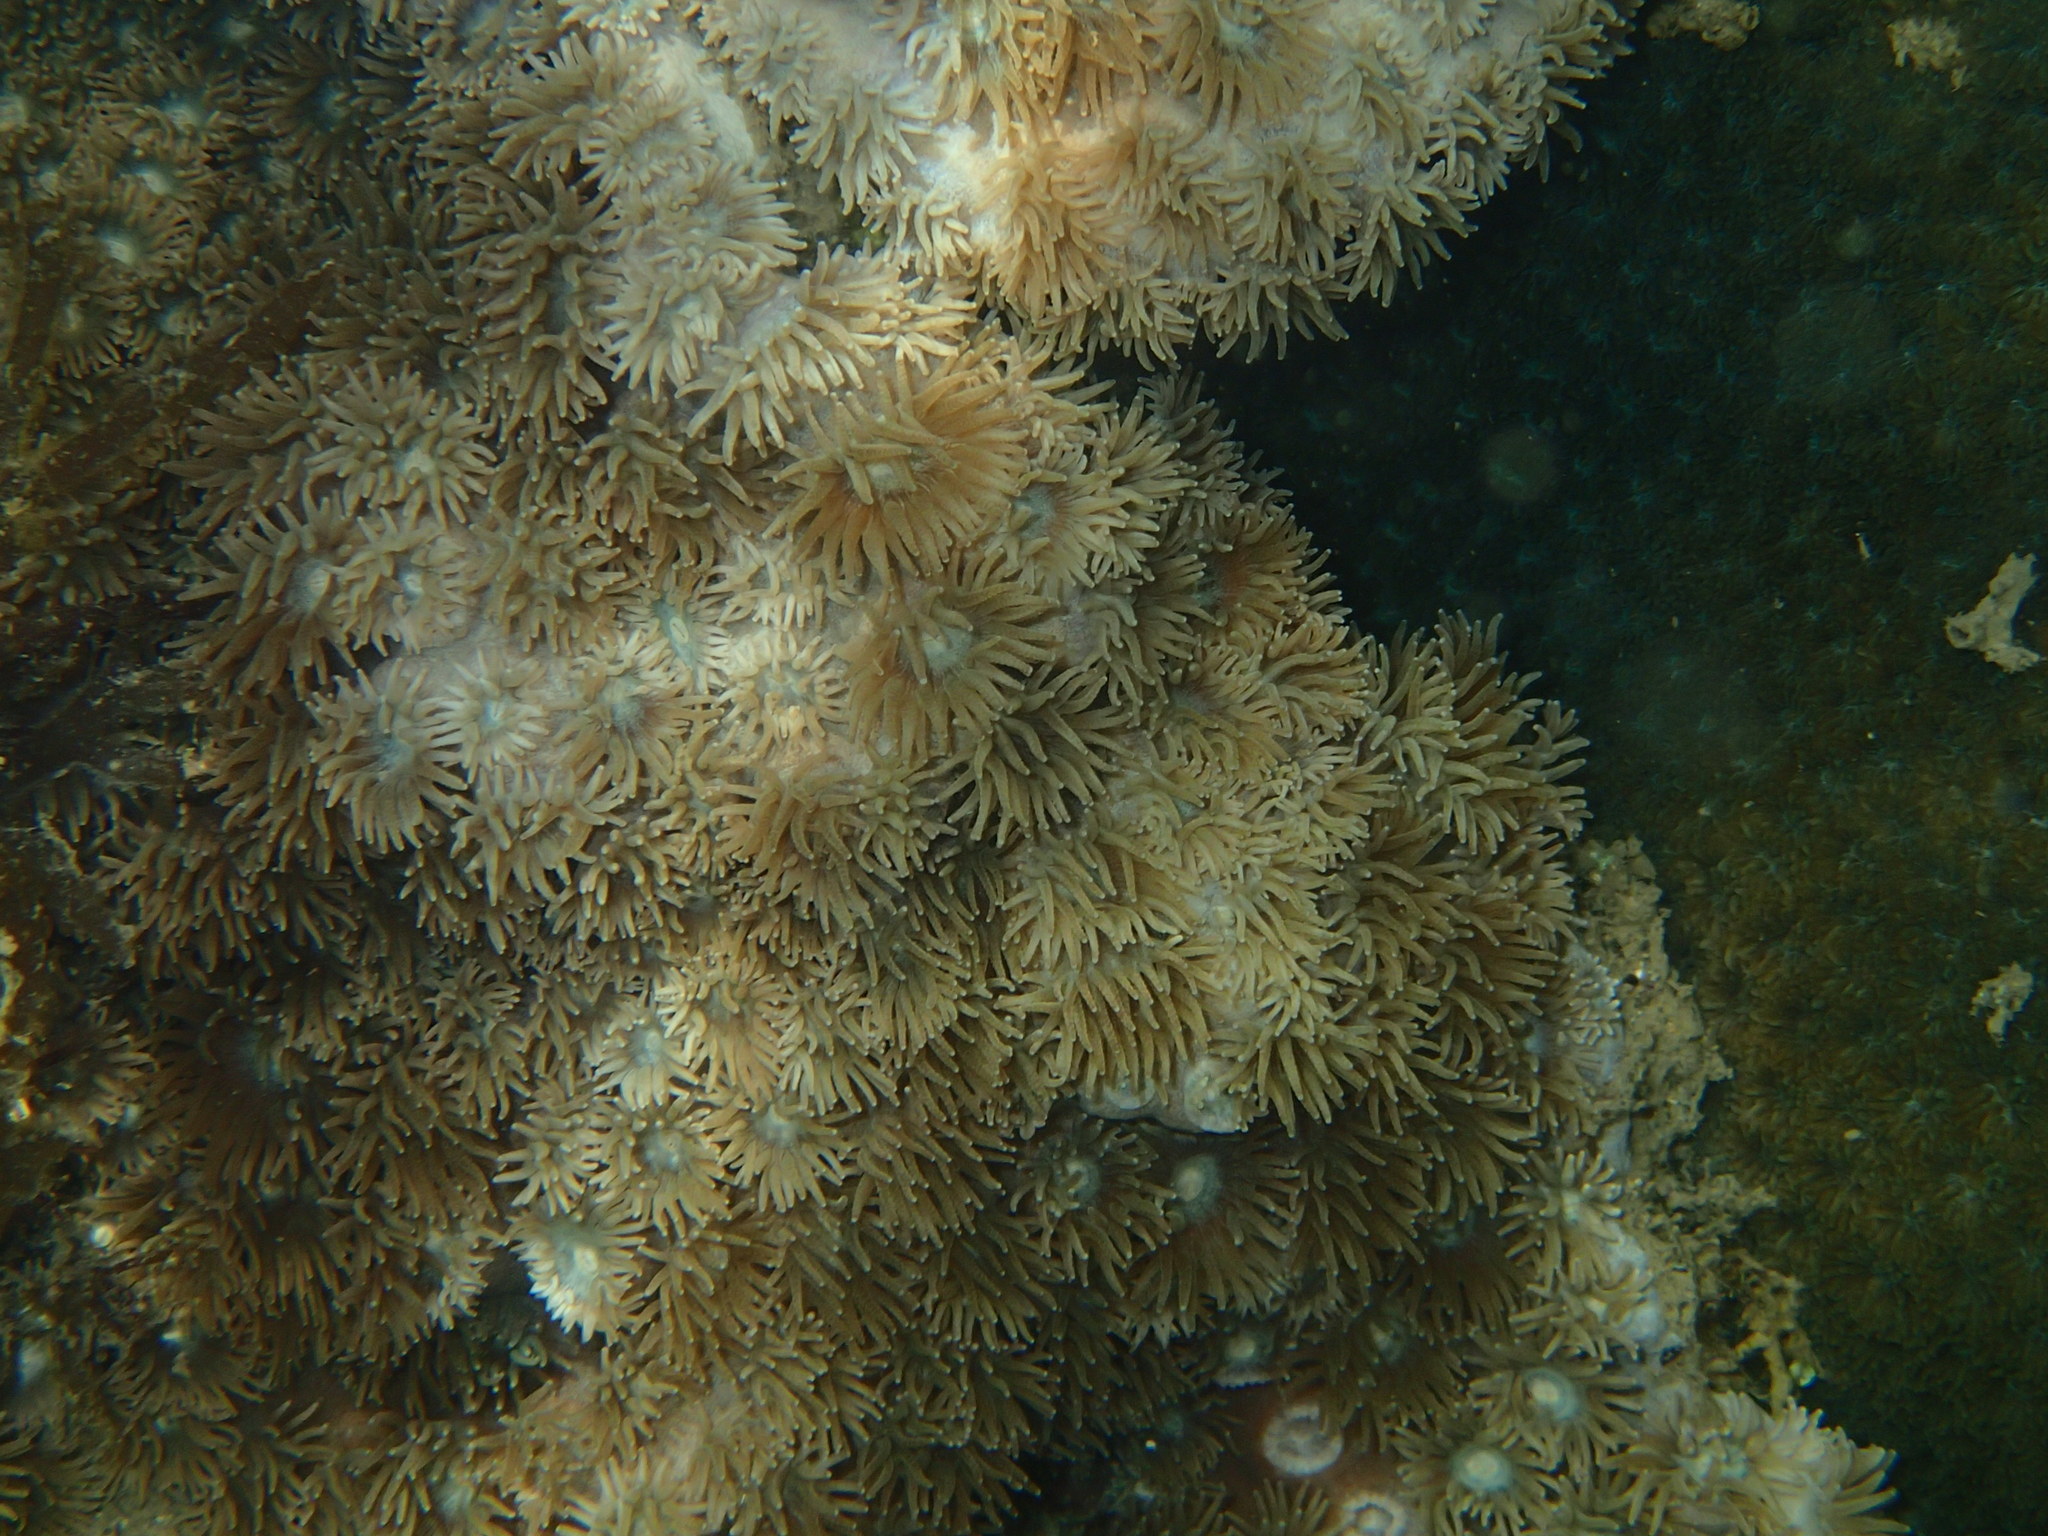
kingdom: Animalia
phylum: Cnidaria
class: Anthozoa
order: Scleractinia
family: Dendrophylliidae
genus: Duncanopsammia
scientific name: Duncanopsammia peltata
